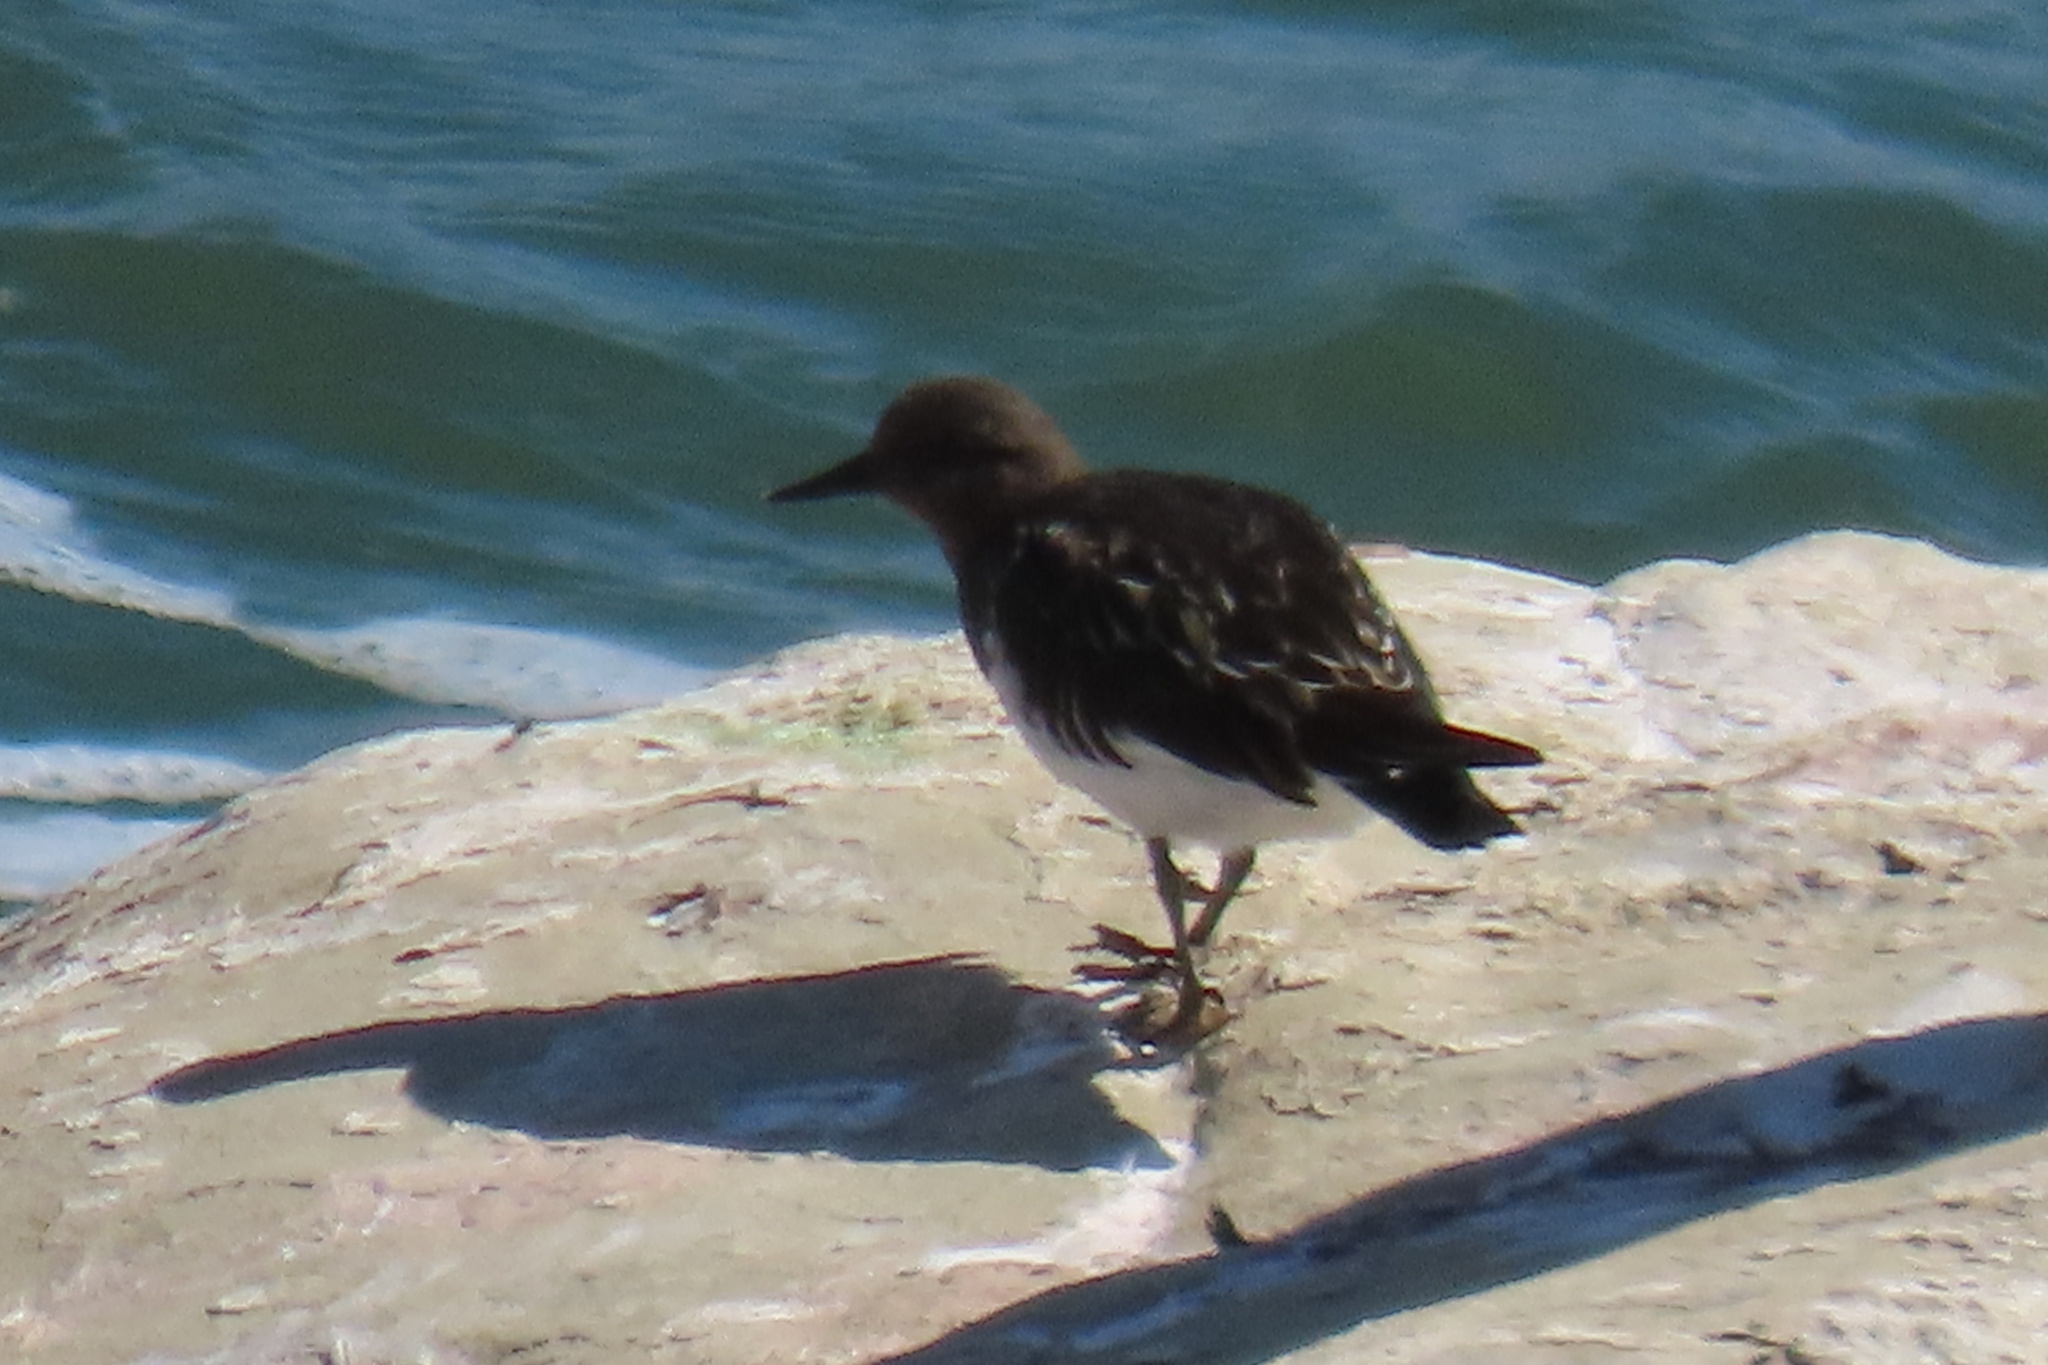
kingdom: Animalia
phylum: Chordata
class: Aves
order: Charadriiformes
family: Scolopacidae
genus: Arenaria
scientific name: Arenaria melanocephala
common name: Black turnstone
